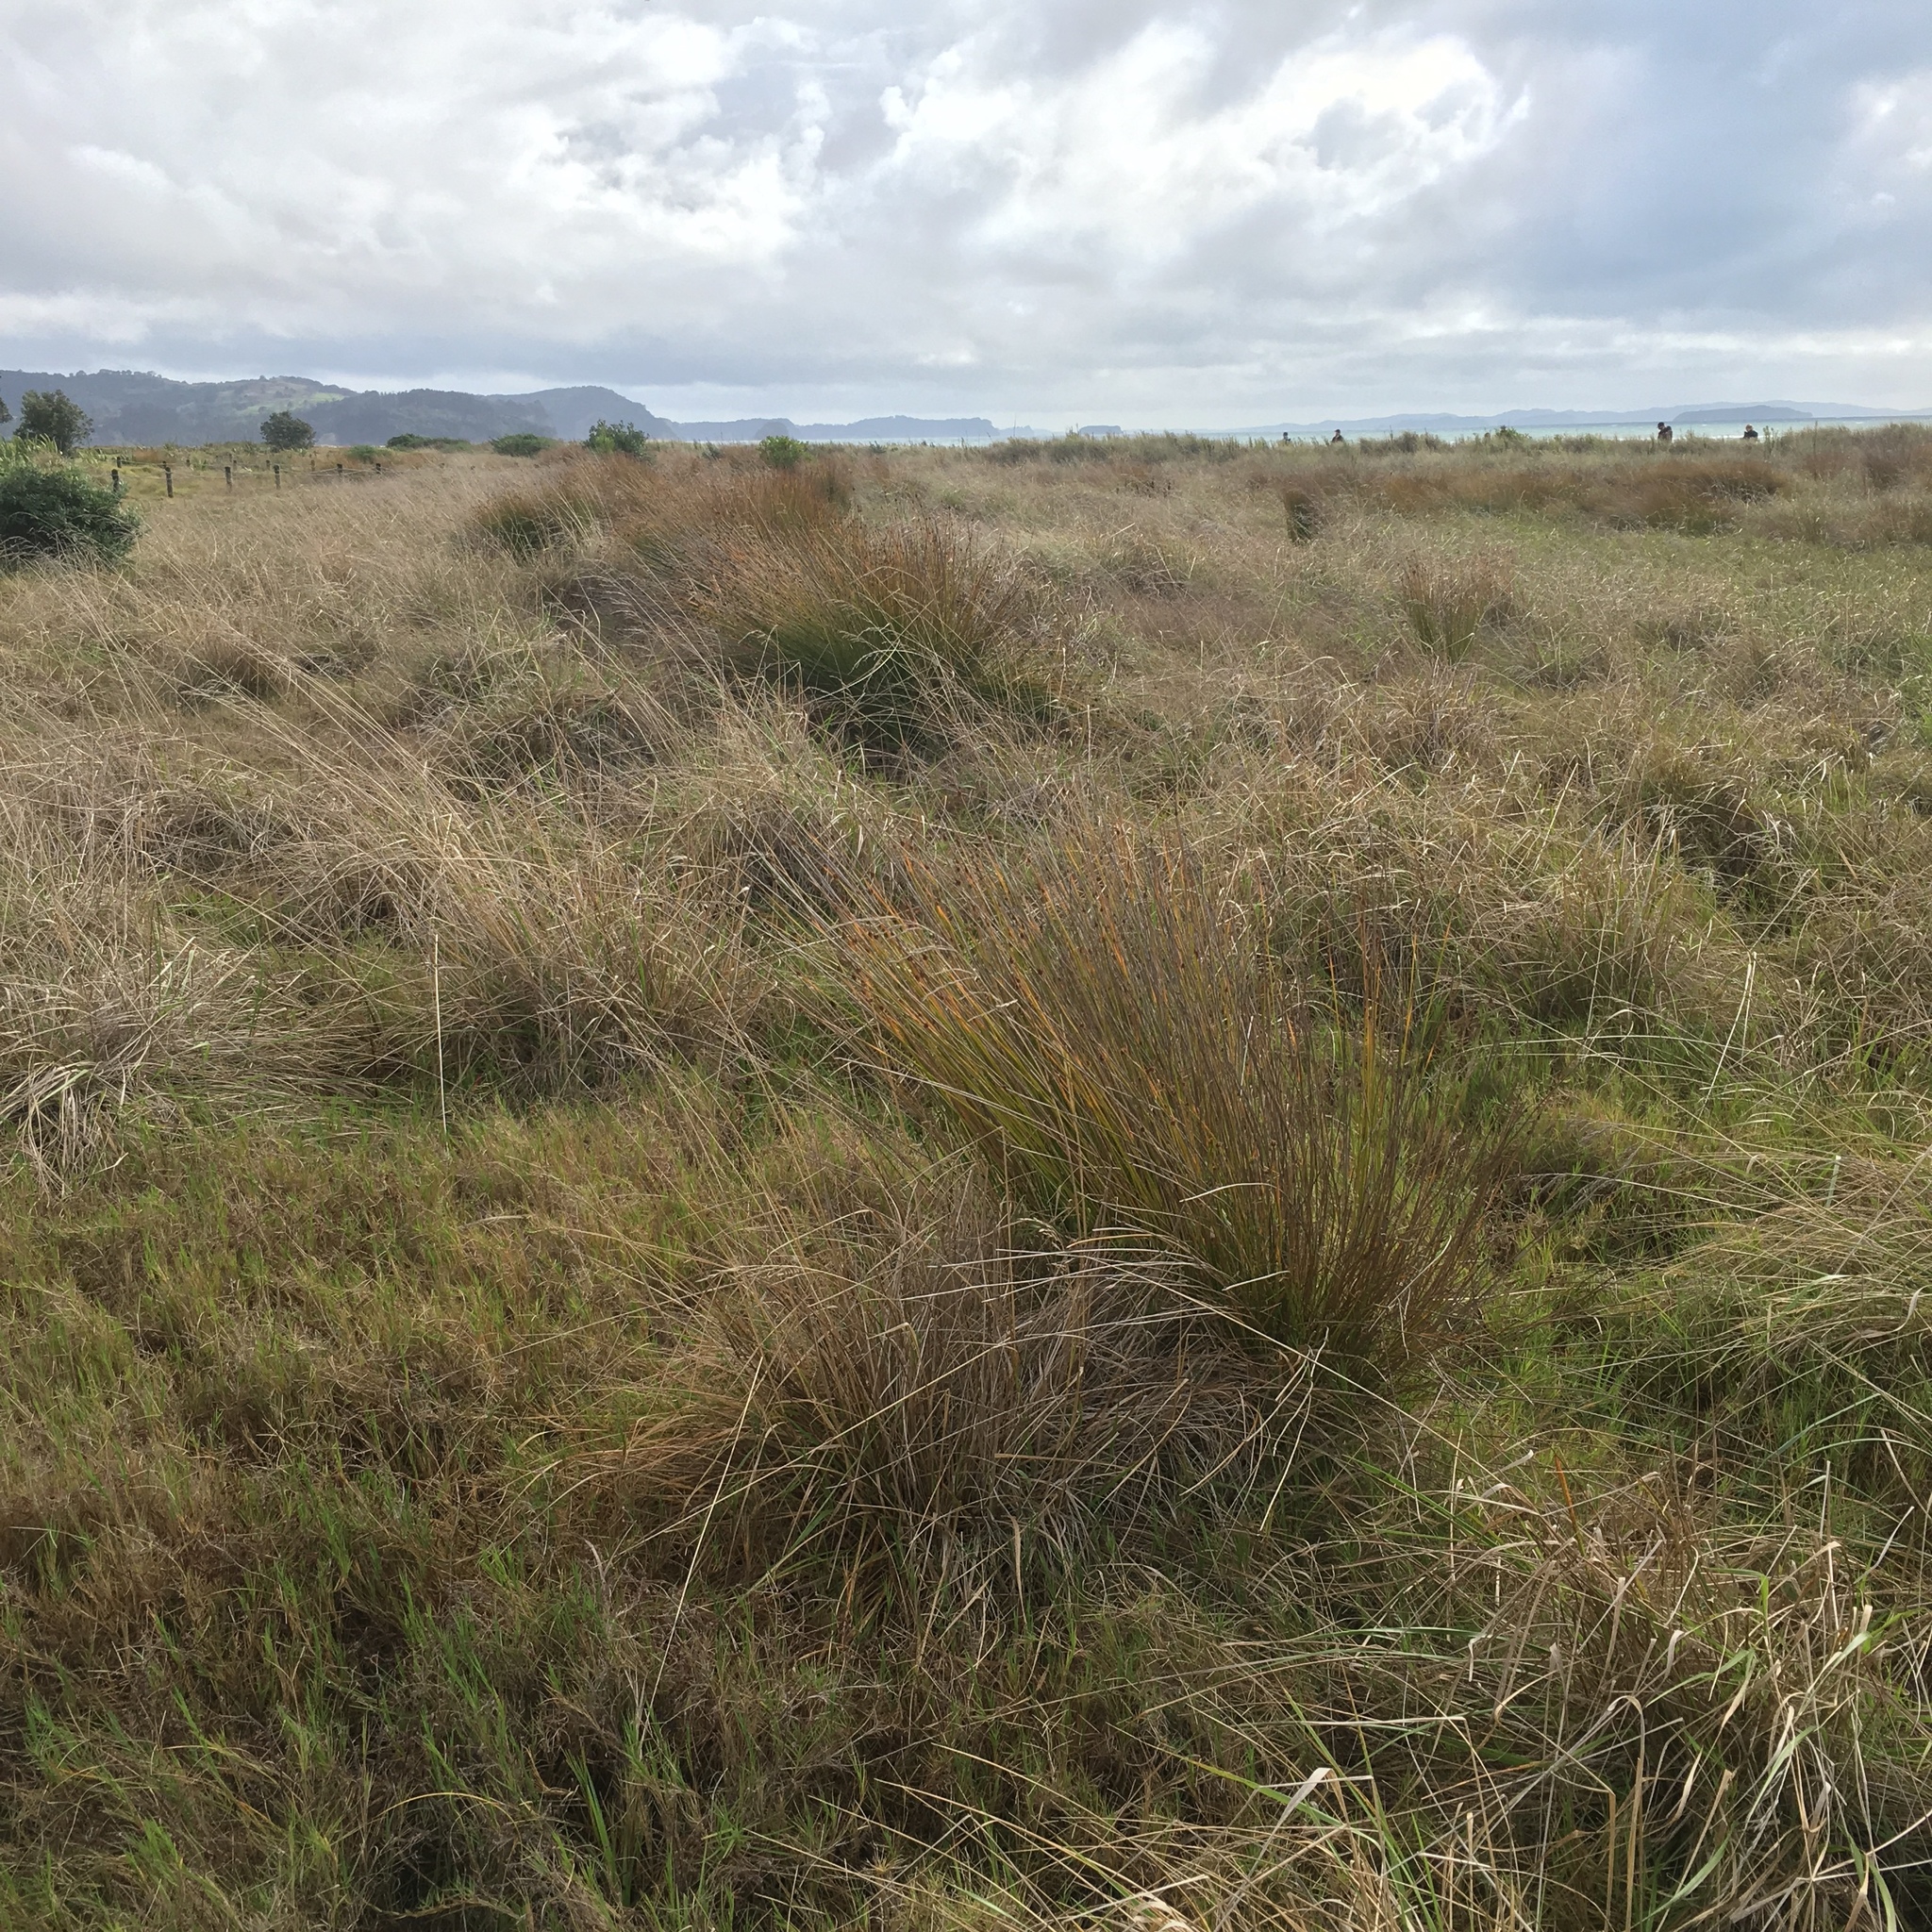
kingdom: Plantae
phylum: Tracheophyta
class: Liliopsida
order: Poales
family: Cyperaceae
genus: Ficinia
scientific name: Ficinia nodosa
